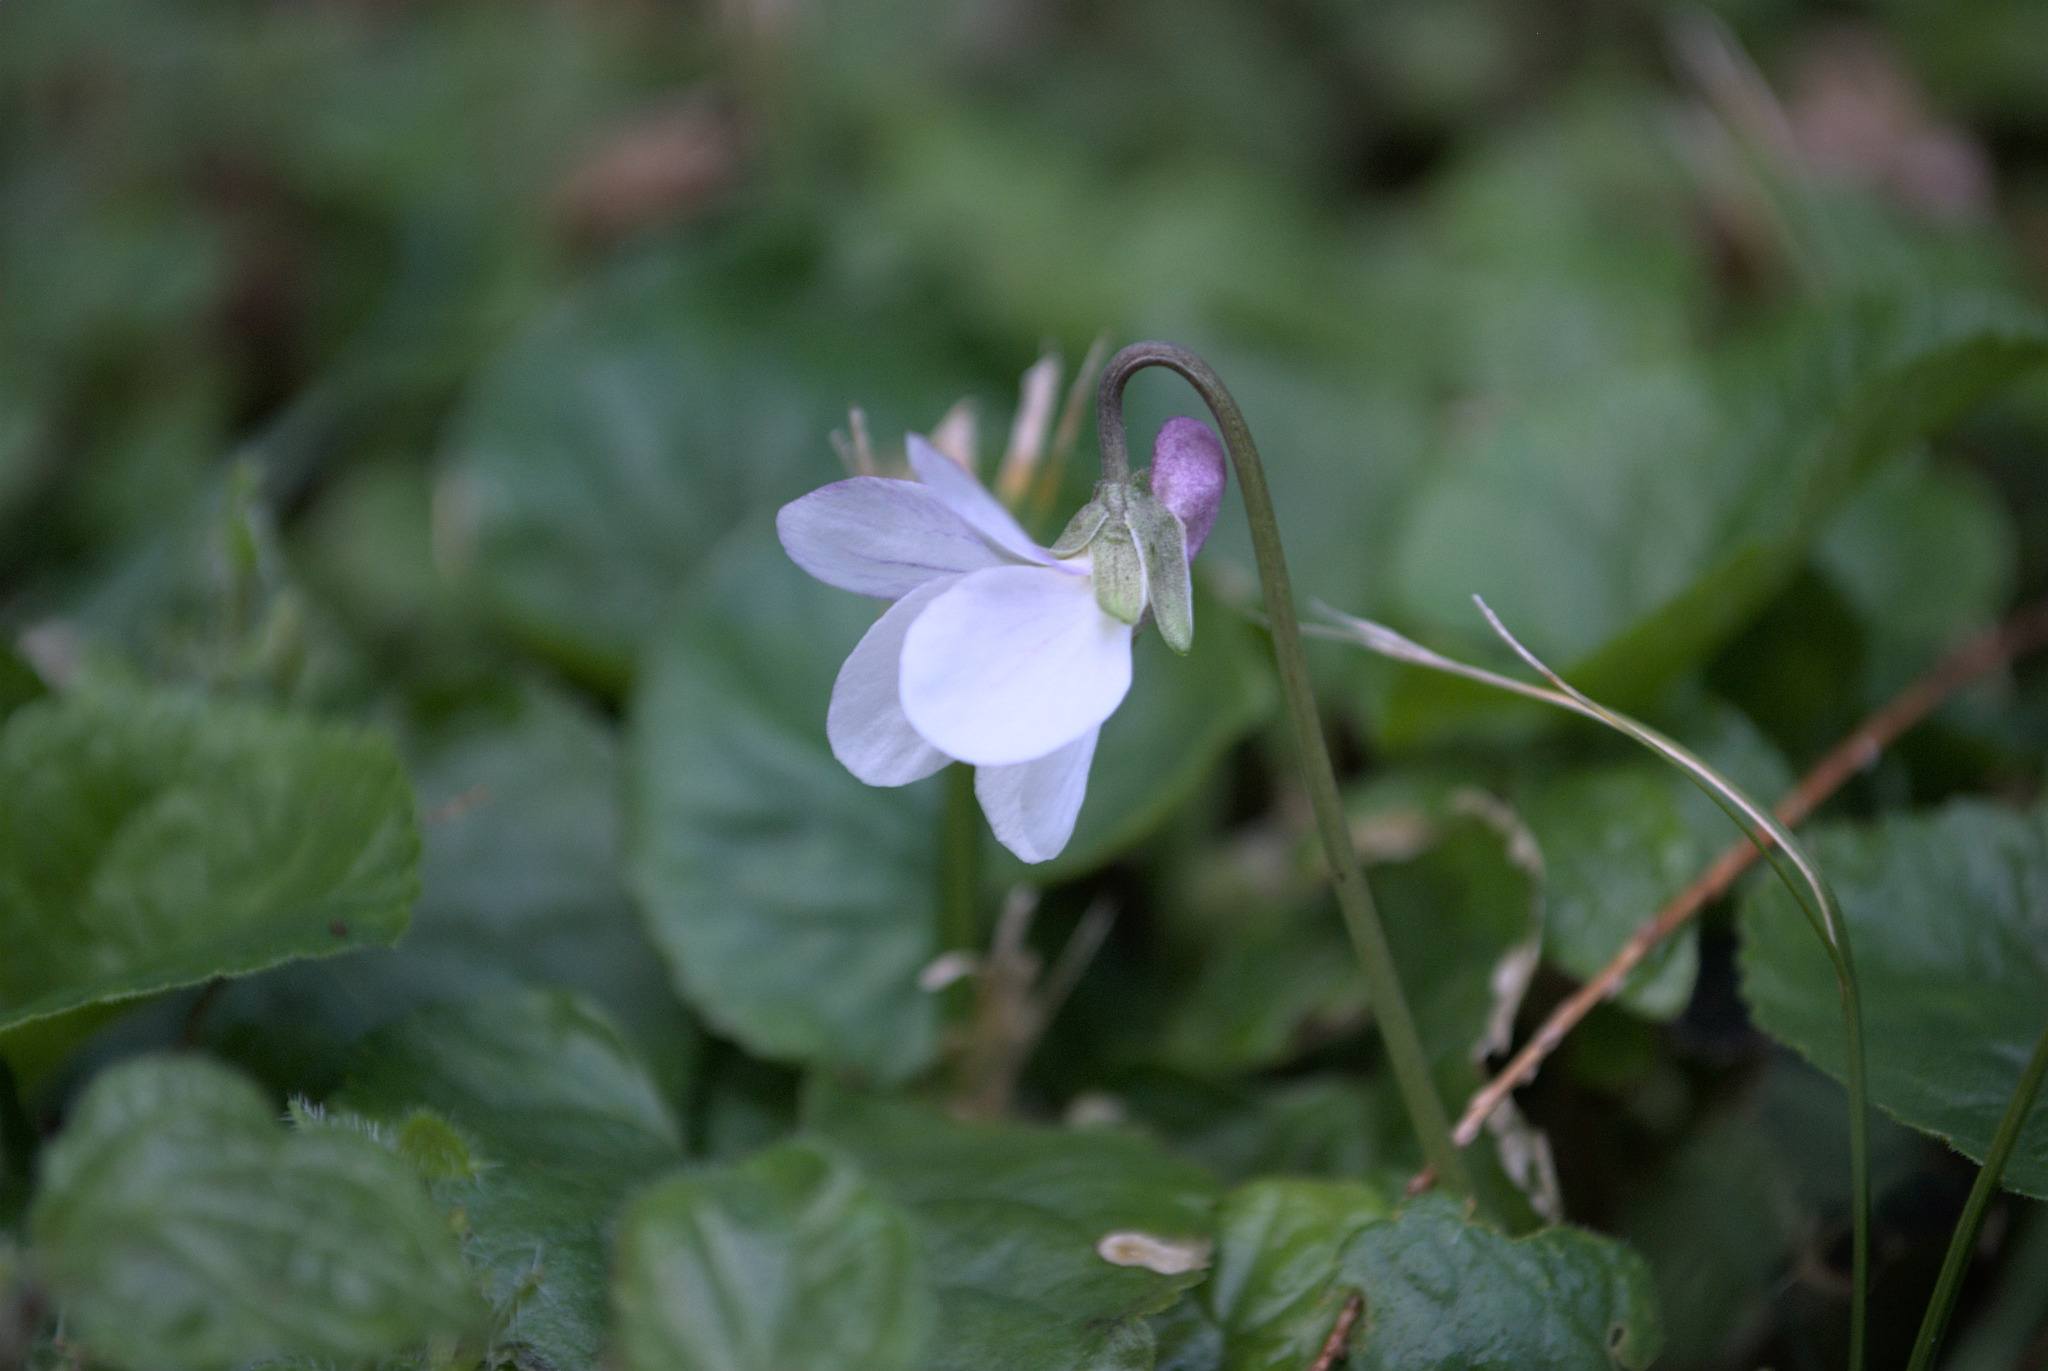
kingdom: Plantae
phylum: Tracheophyta
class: Magnoliopsida
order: Malpighiales
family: Violaceae
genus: Viola
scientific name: Viola odorata
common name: Sweet violet
